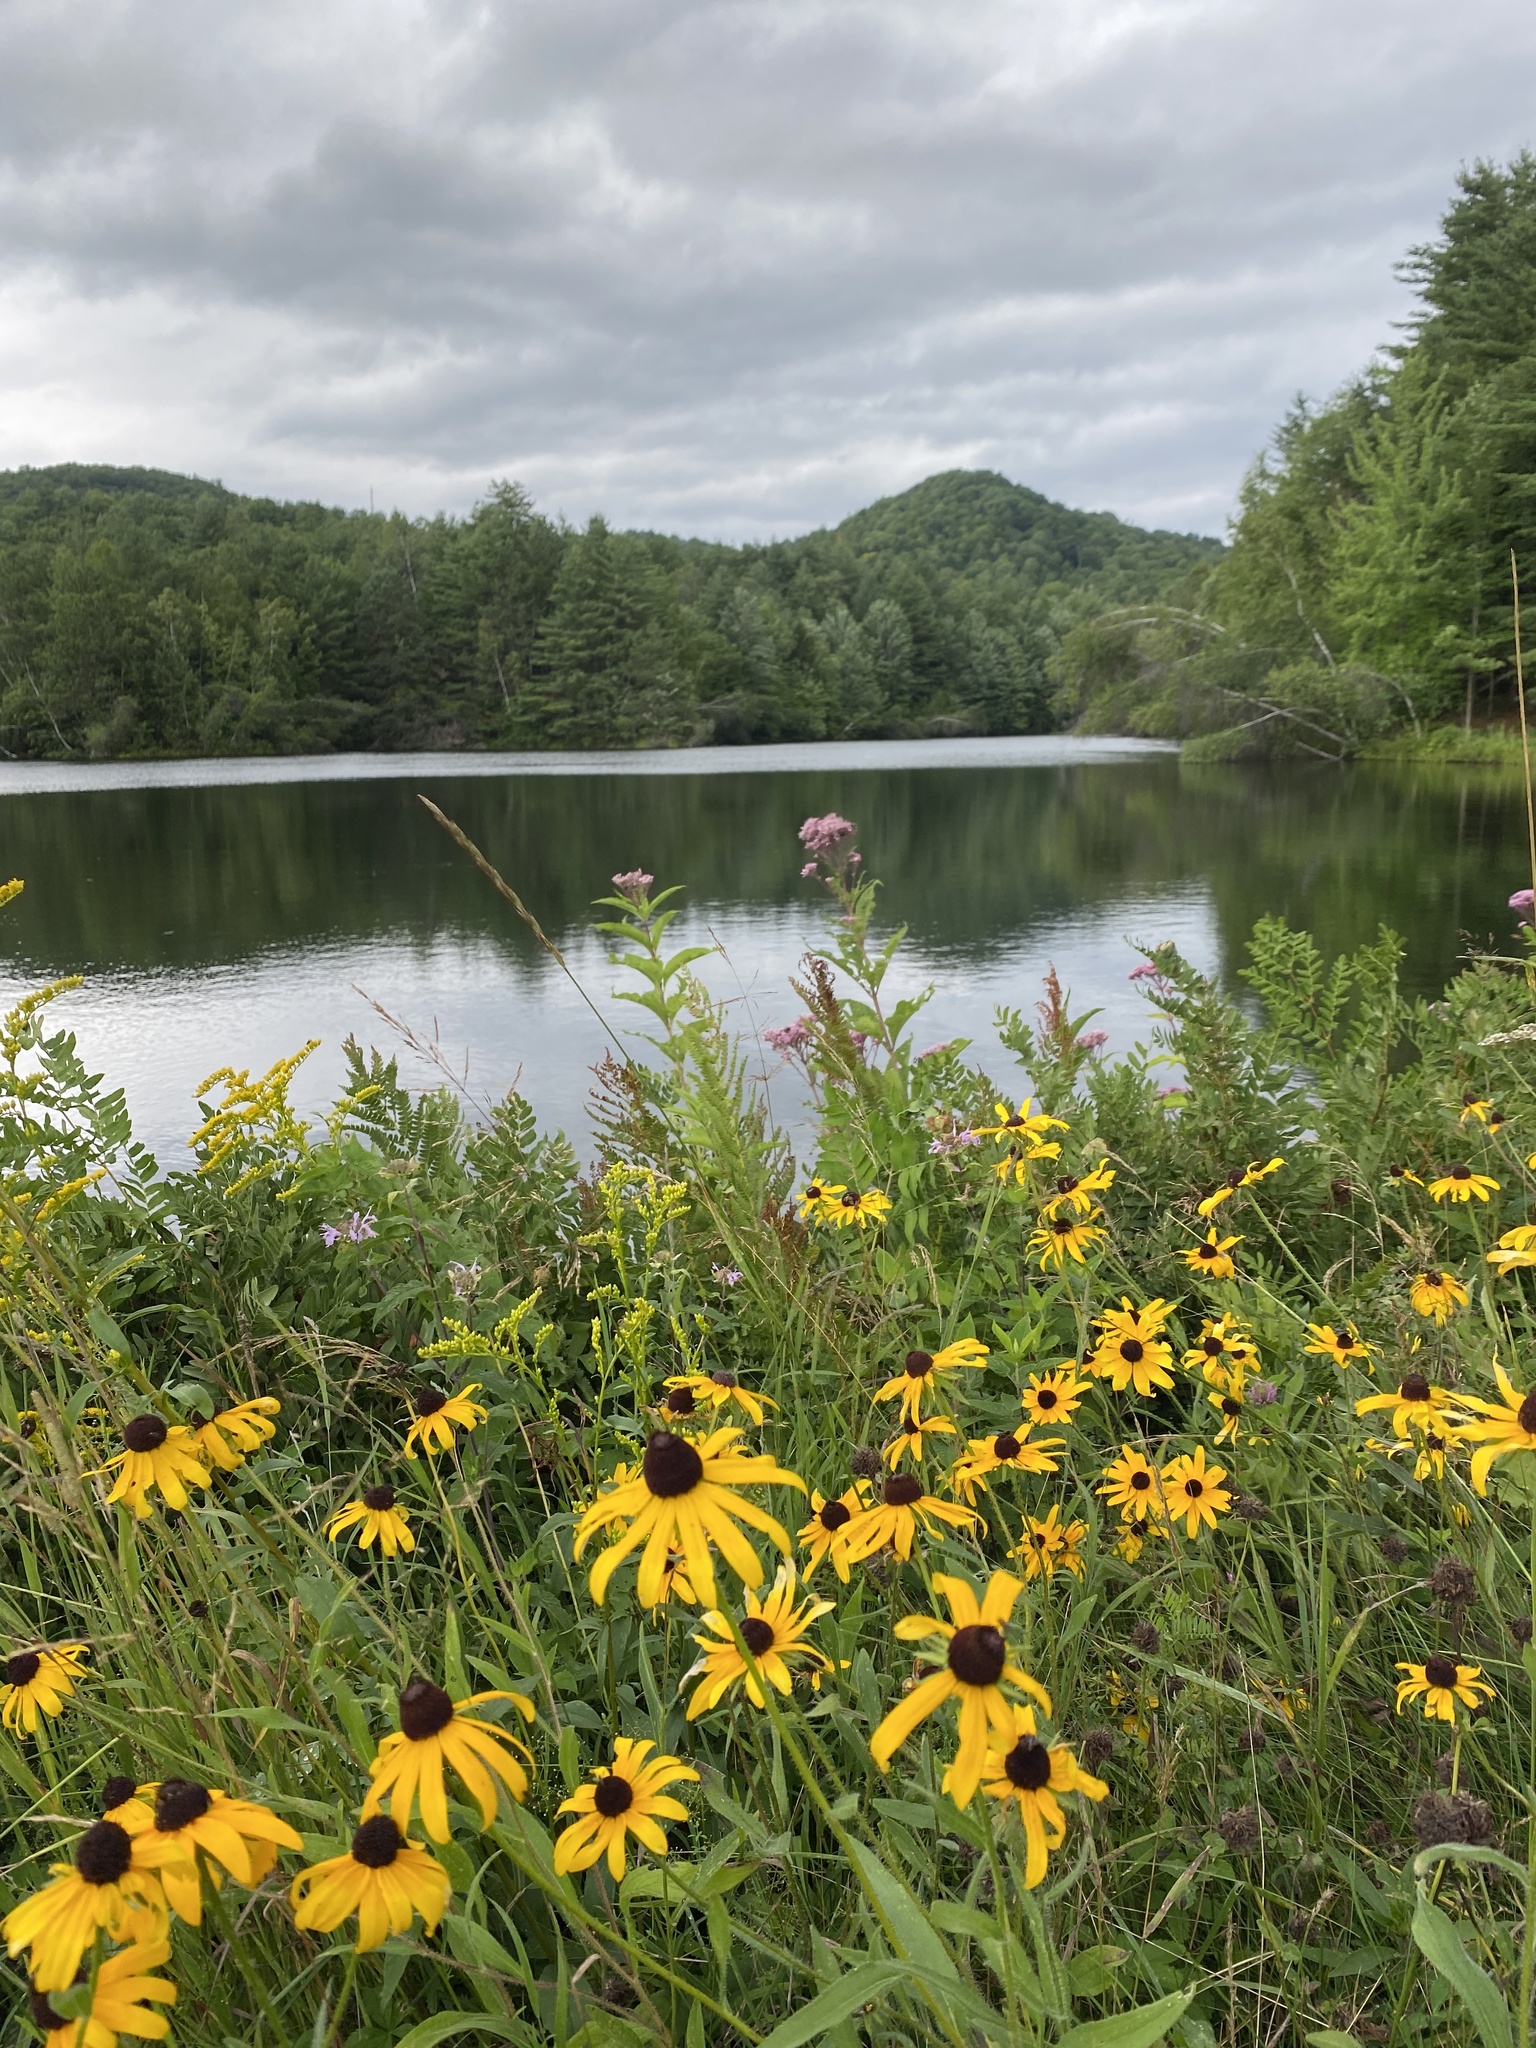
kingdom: Plantae
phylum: Tracheophyta
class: Magnoliopsida
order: Asterales
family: Asteraceae
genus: Rudbeckia
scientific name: Rudbeckia hirta
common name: Black-eyed-susan
